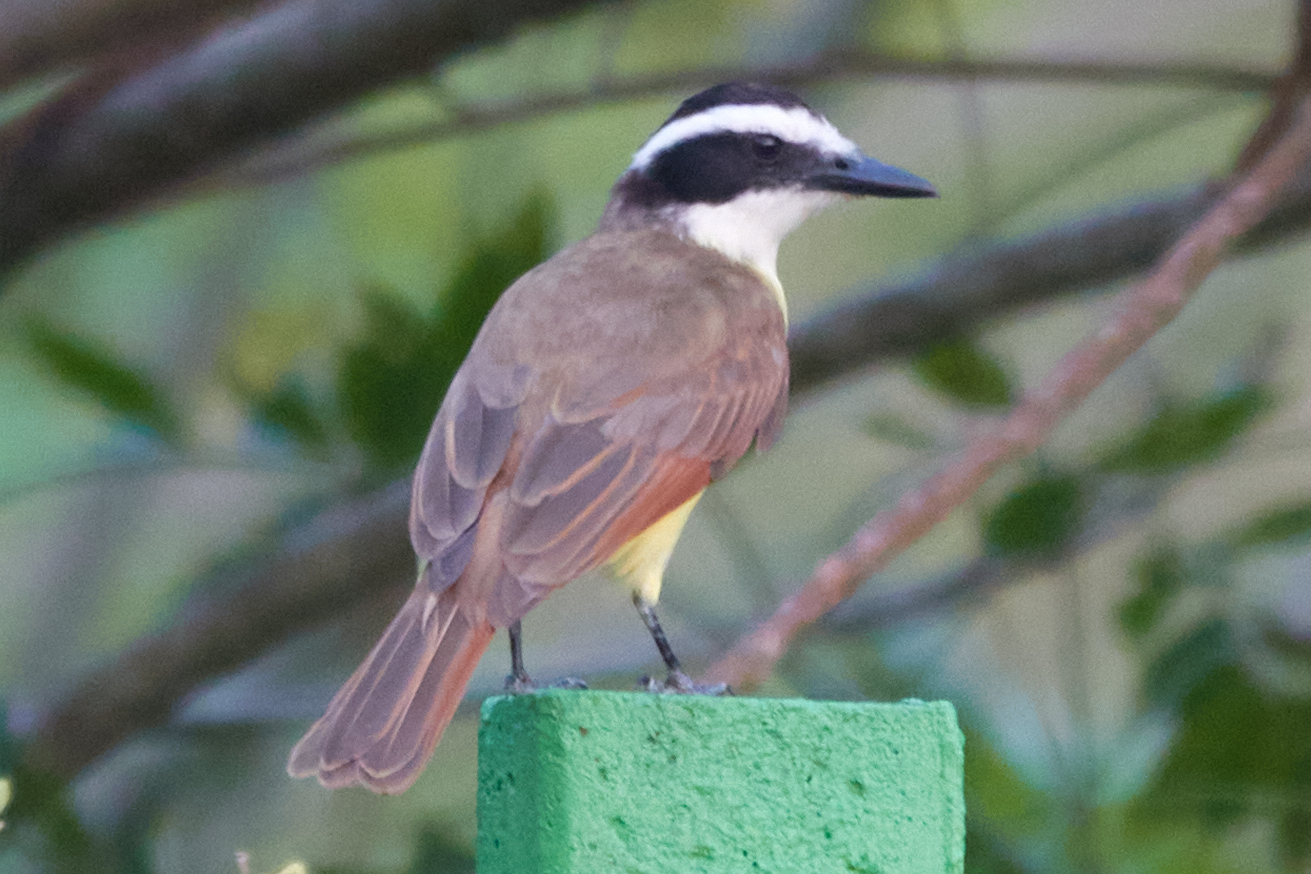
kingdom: Animalia
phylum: Chordata
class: Aves
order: Passeriformes
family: Tyrannidae
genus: Pitangus
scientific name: Pitangus sulphuratus
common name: Great kiskadee
